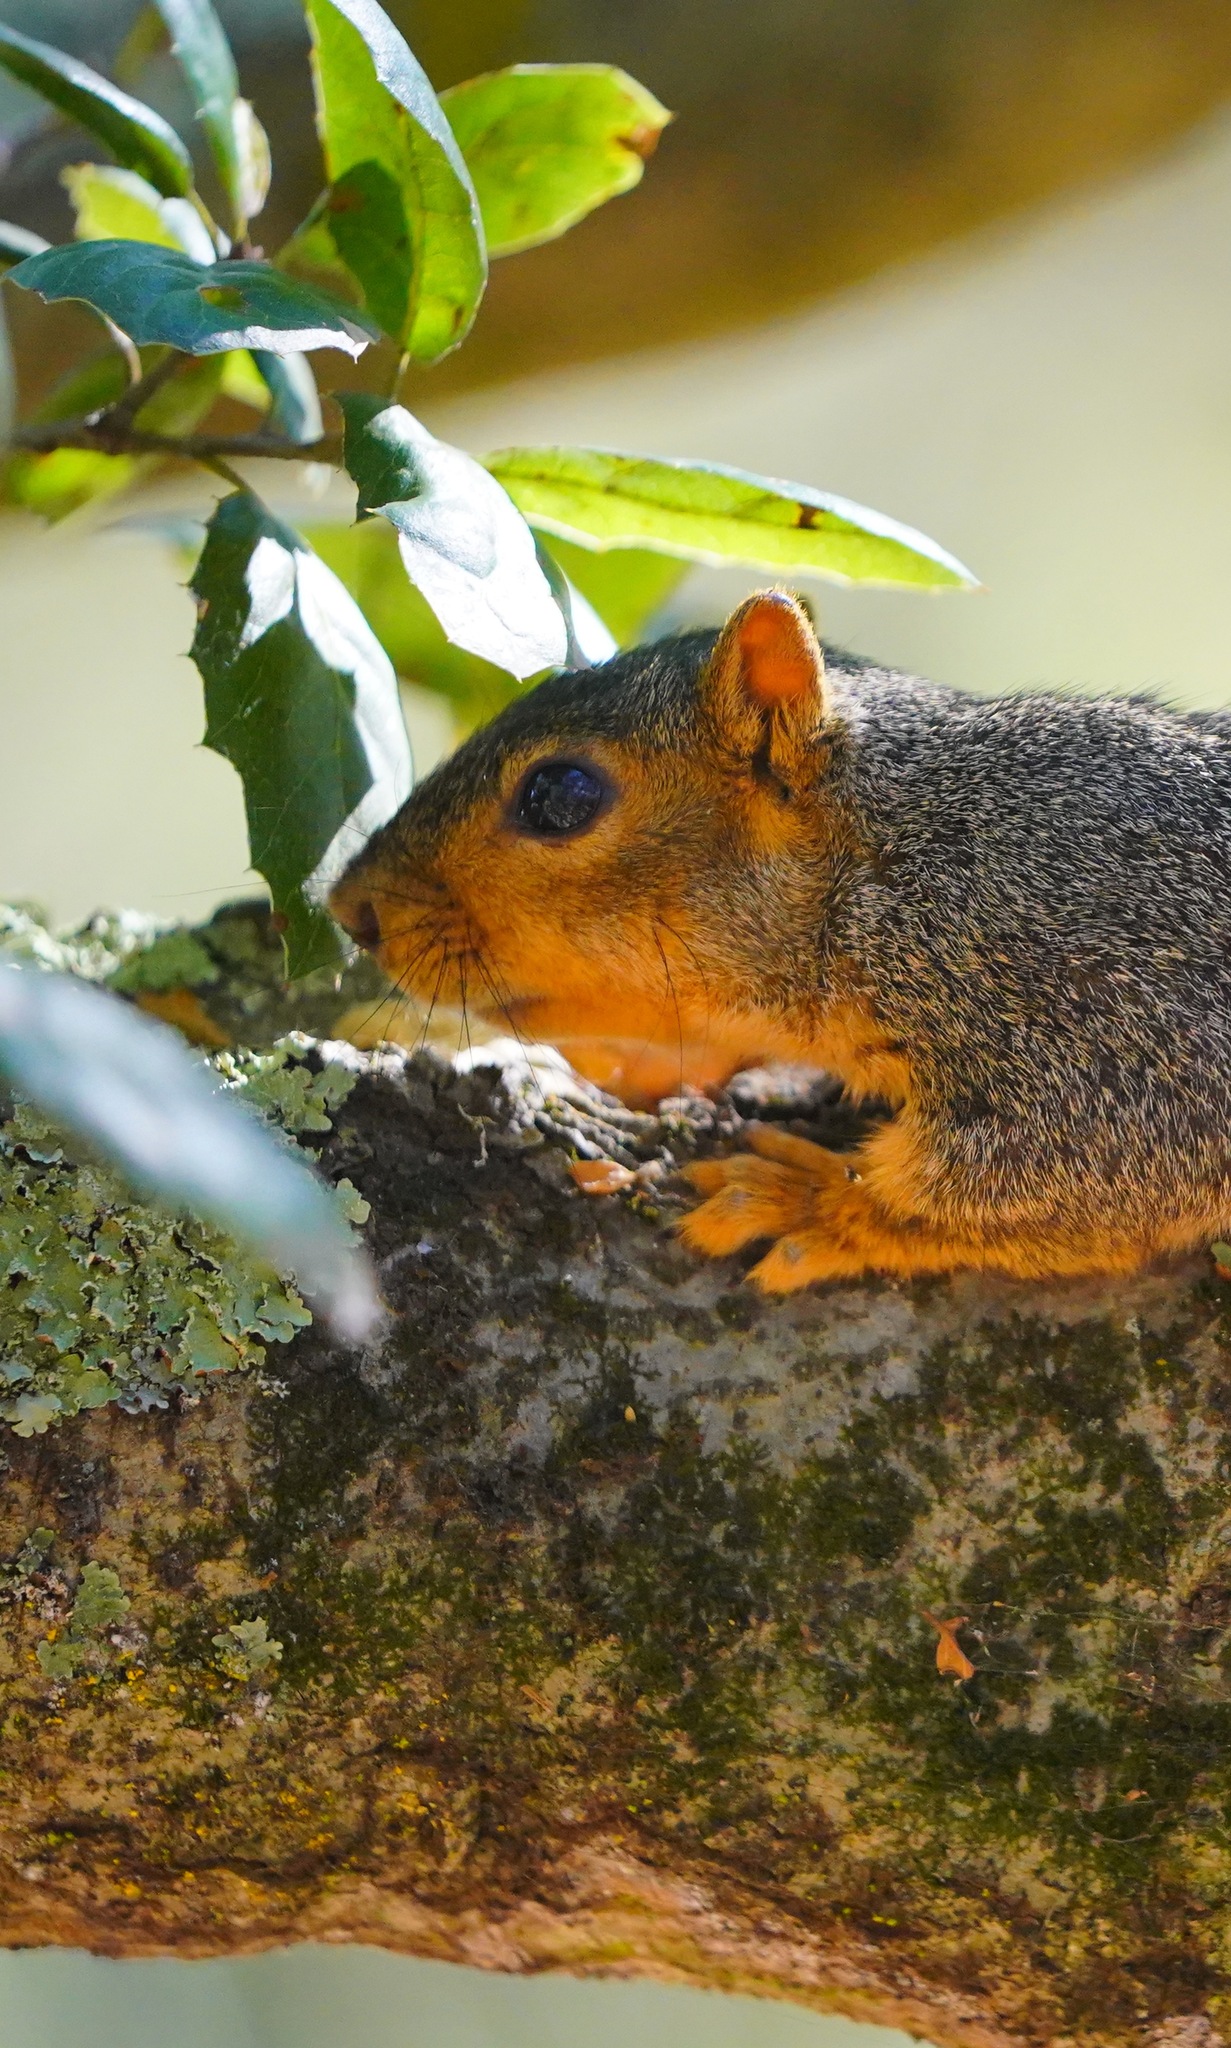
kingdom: Animalia
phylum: Chordata
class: Mammalia
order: Rodentia
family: Sciuridae
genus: Sciurus
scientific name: Sciurus niger
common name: Fox squirrel
